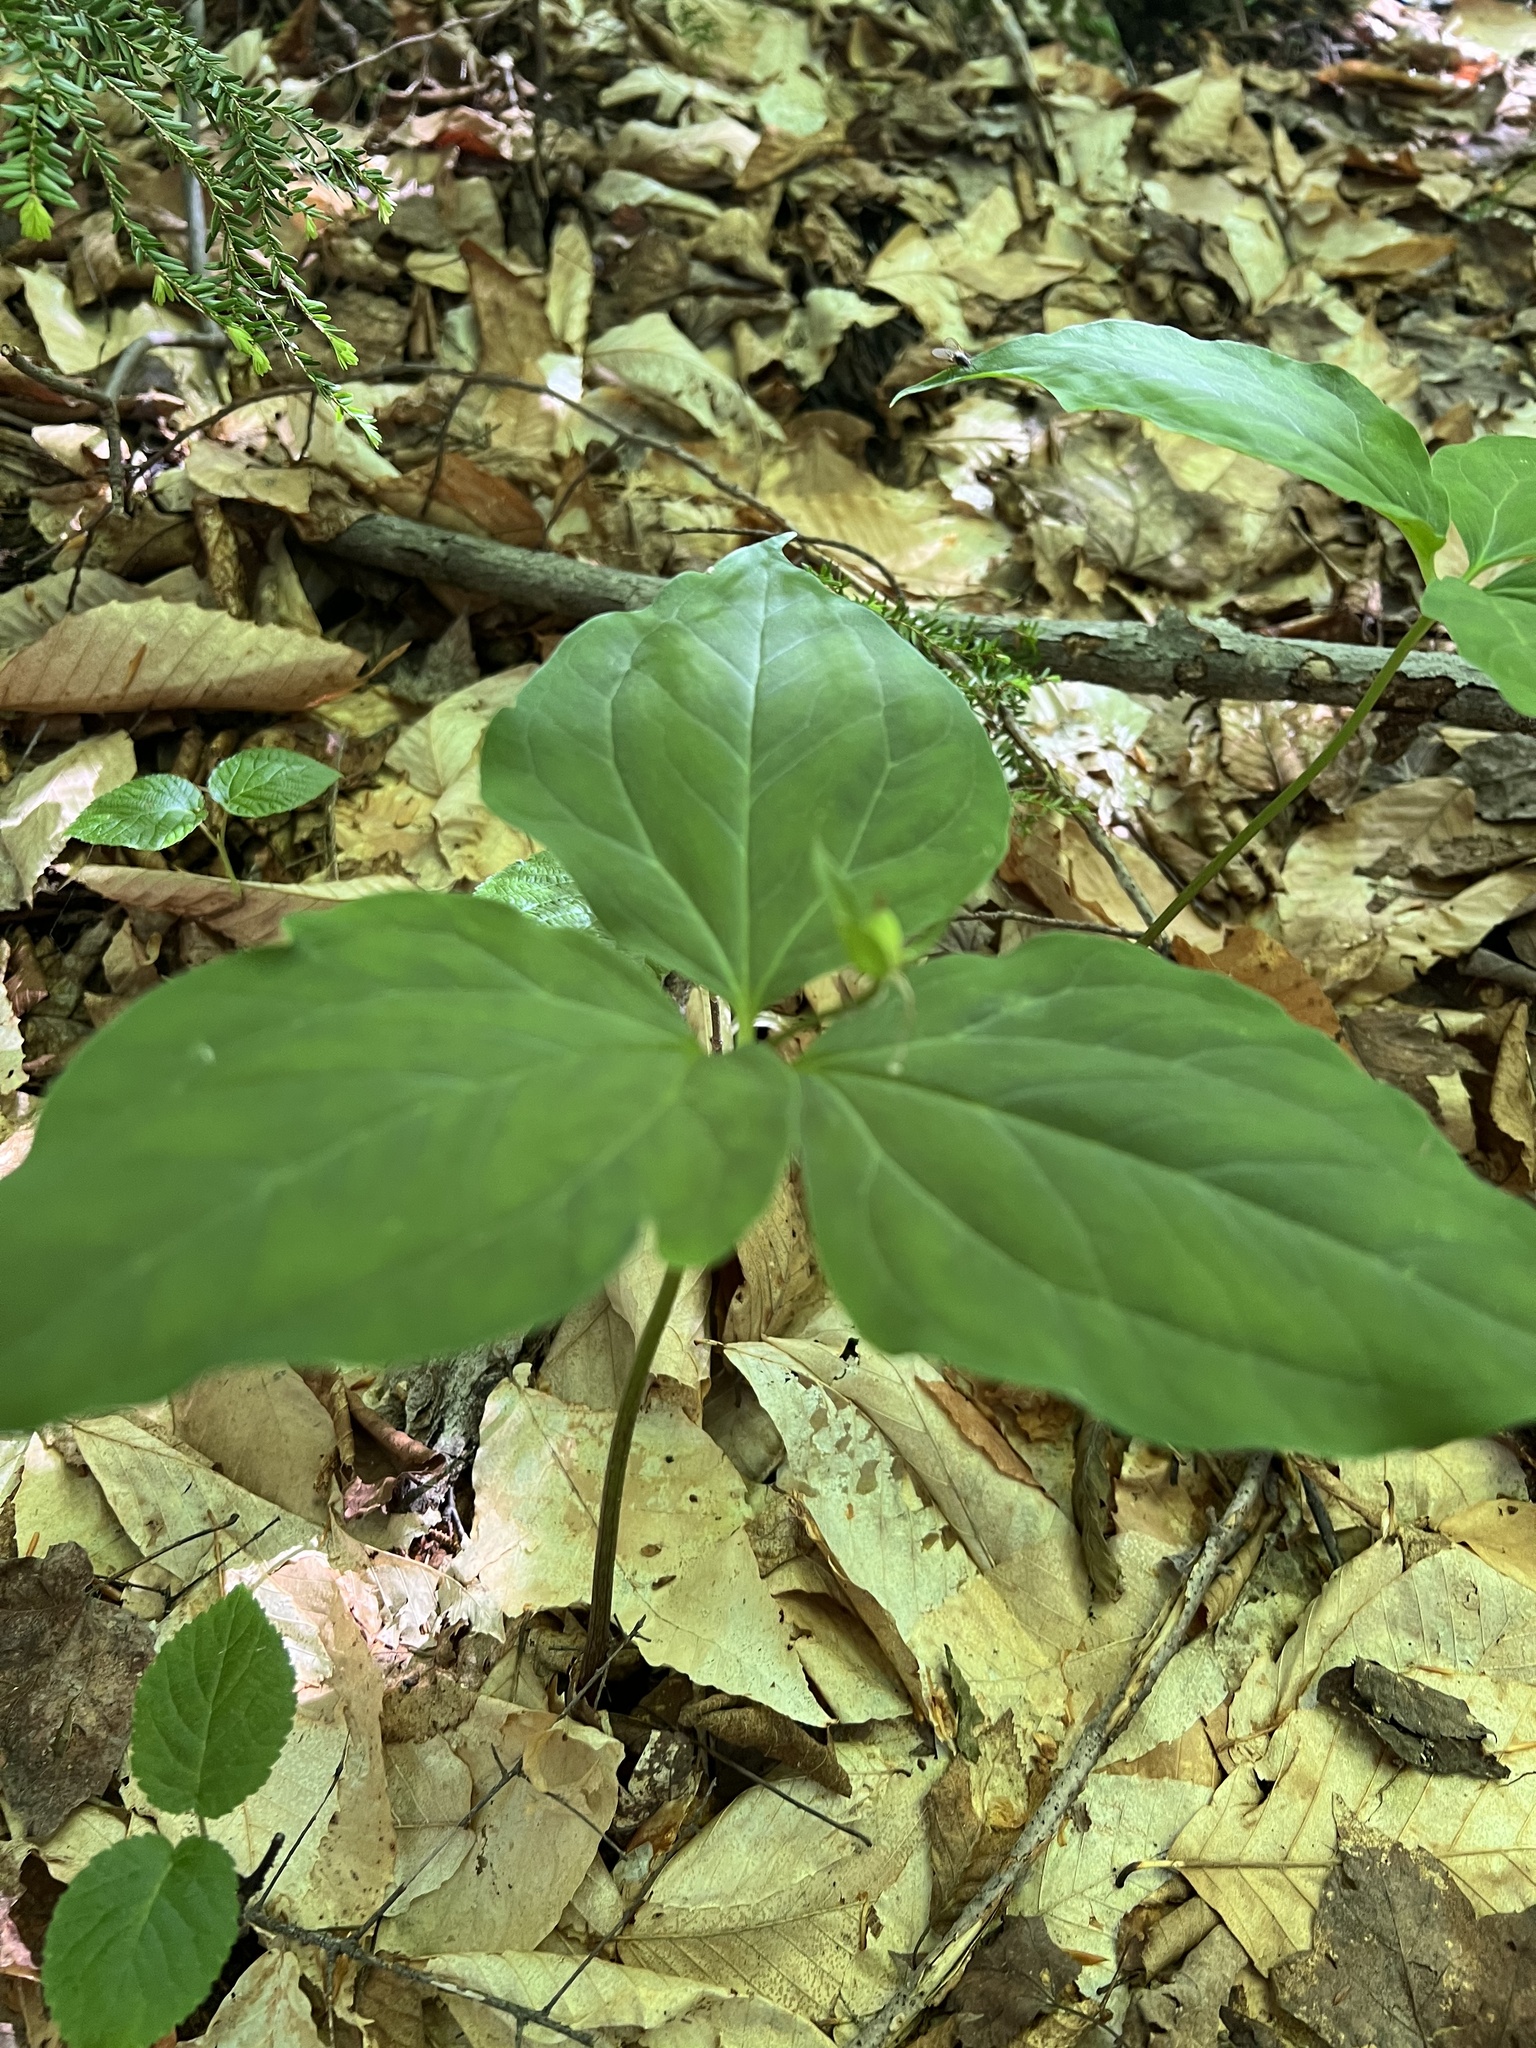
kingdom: Plantae
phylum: Tracheophyta
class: Liliopsida
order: Liliales
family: Melanthiaceae
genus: Trillium
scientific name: Trillium undulatum
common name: Paint trillium
